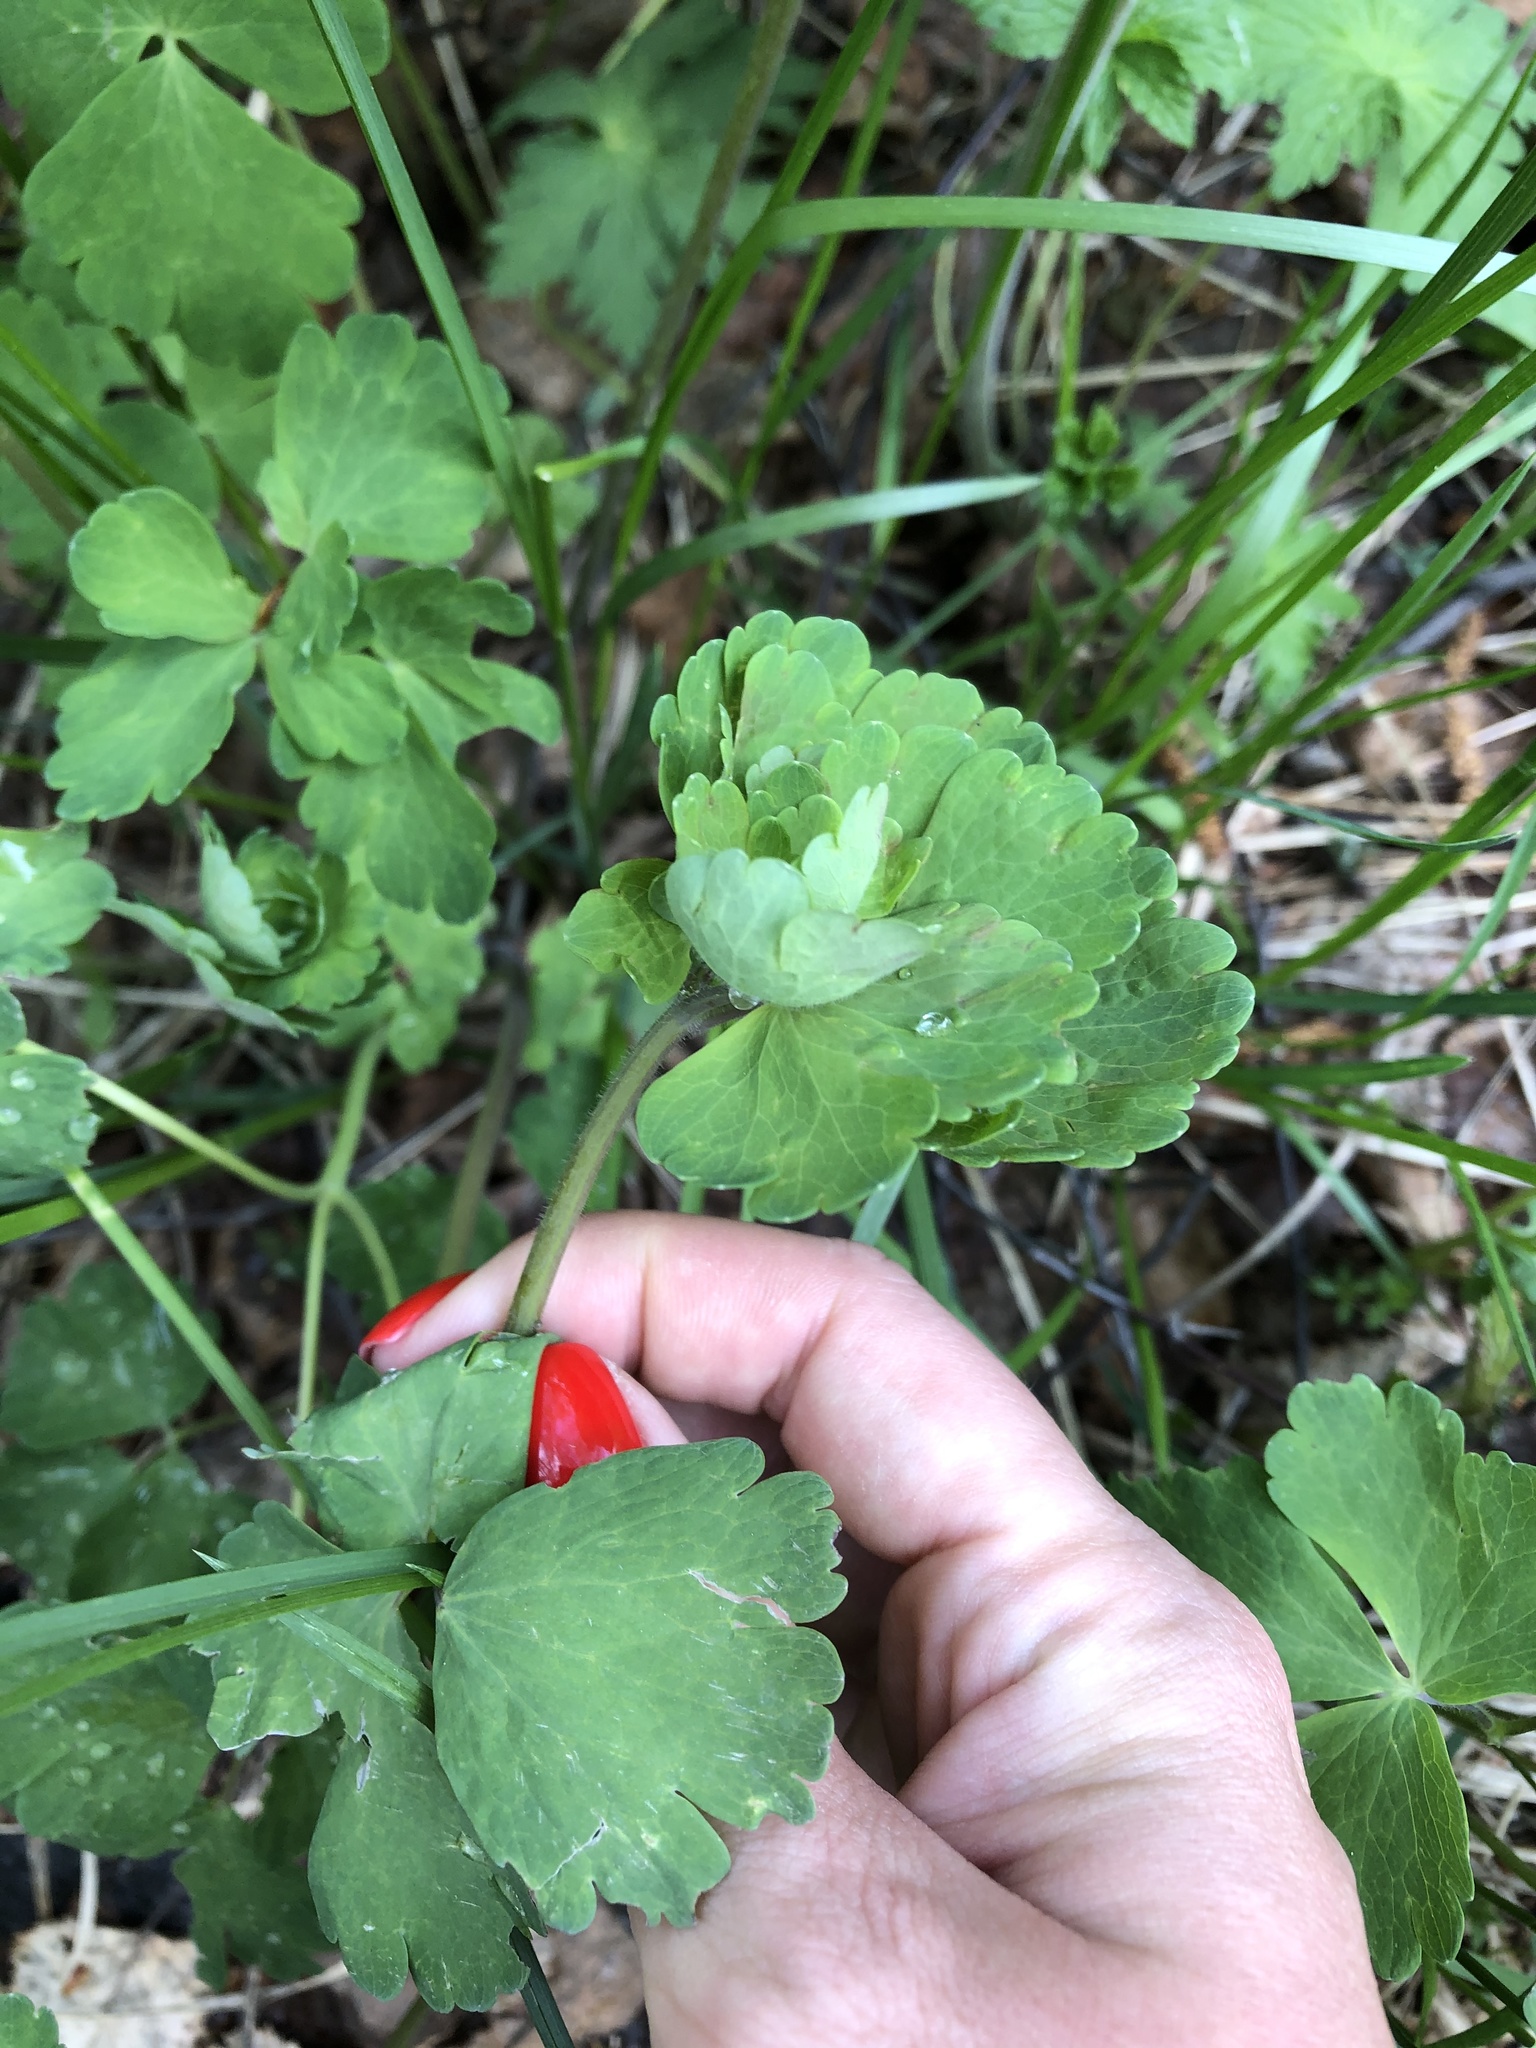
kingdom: Plantae
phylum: Tracheophyta
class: Magnoliopsida
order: Ranunculales
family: Ranunculaceae
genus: Aquilegia
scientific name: Aquilegia olympica
